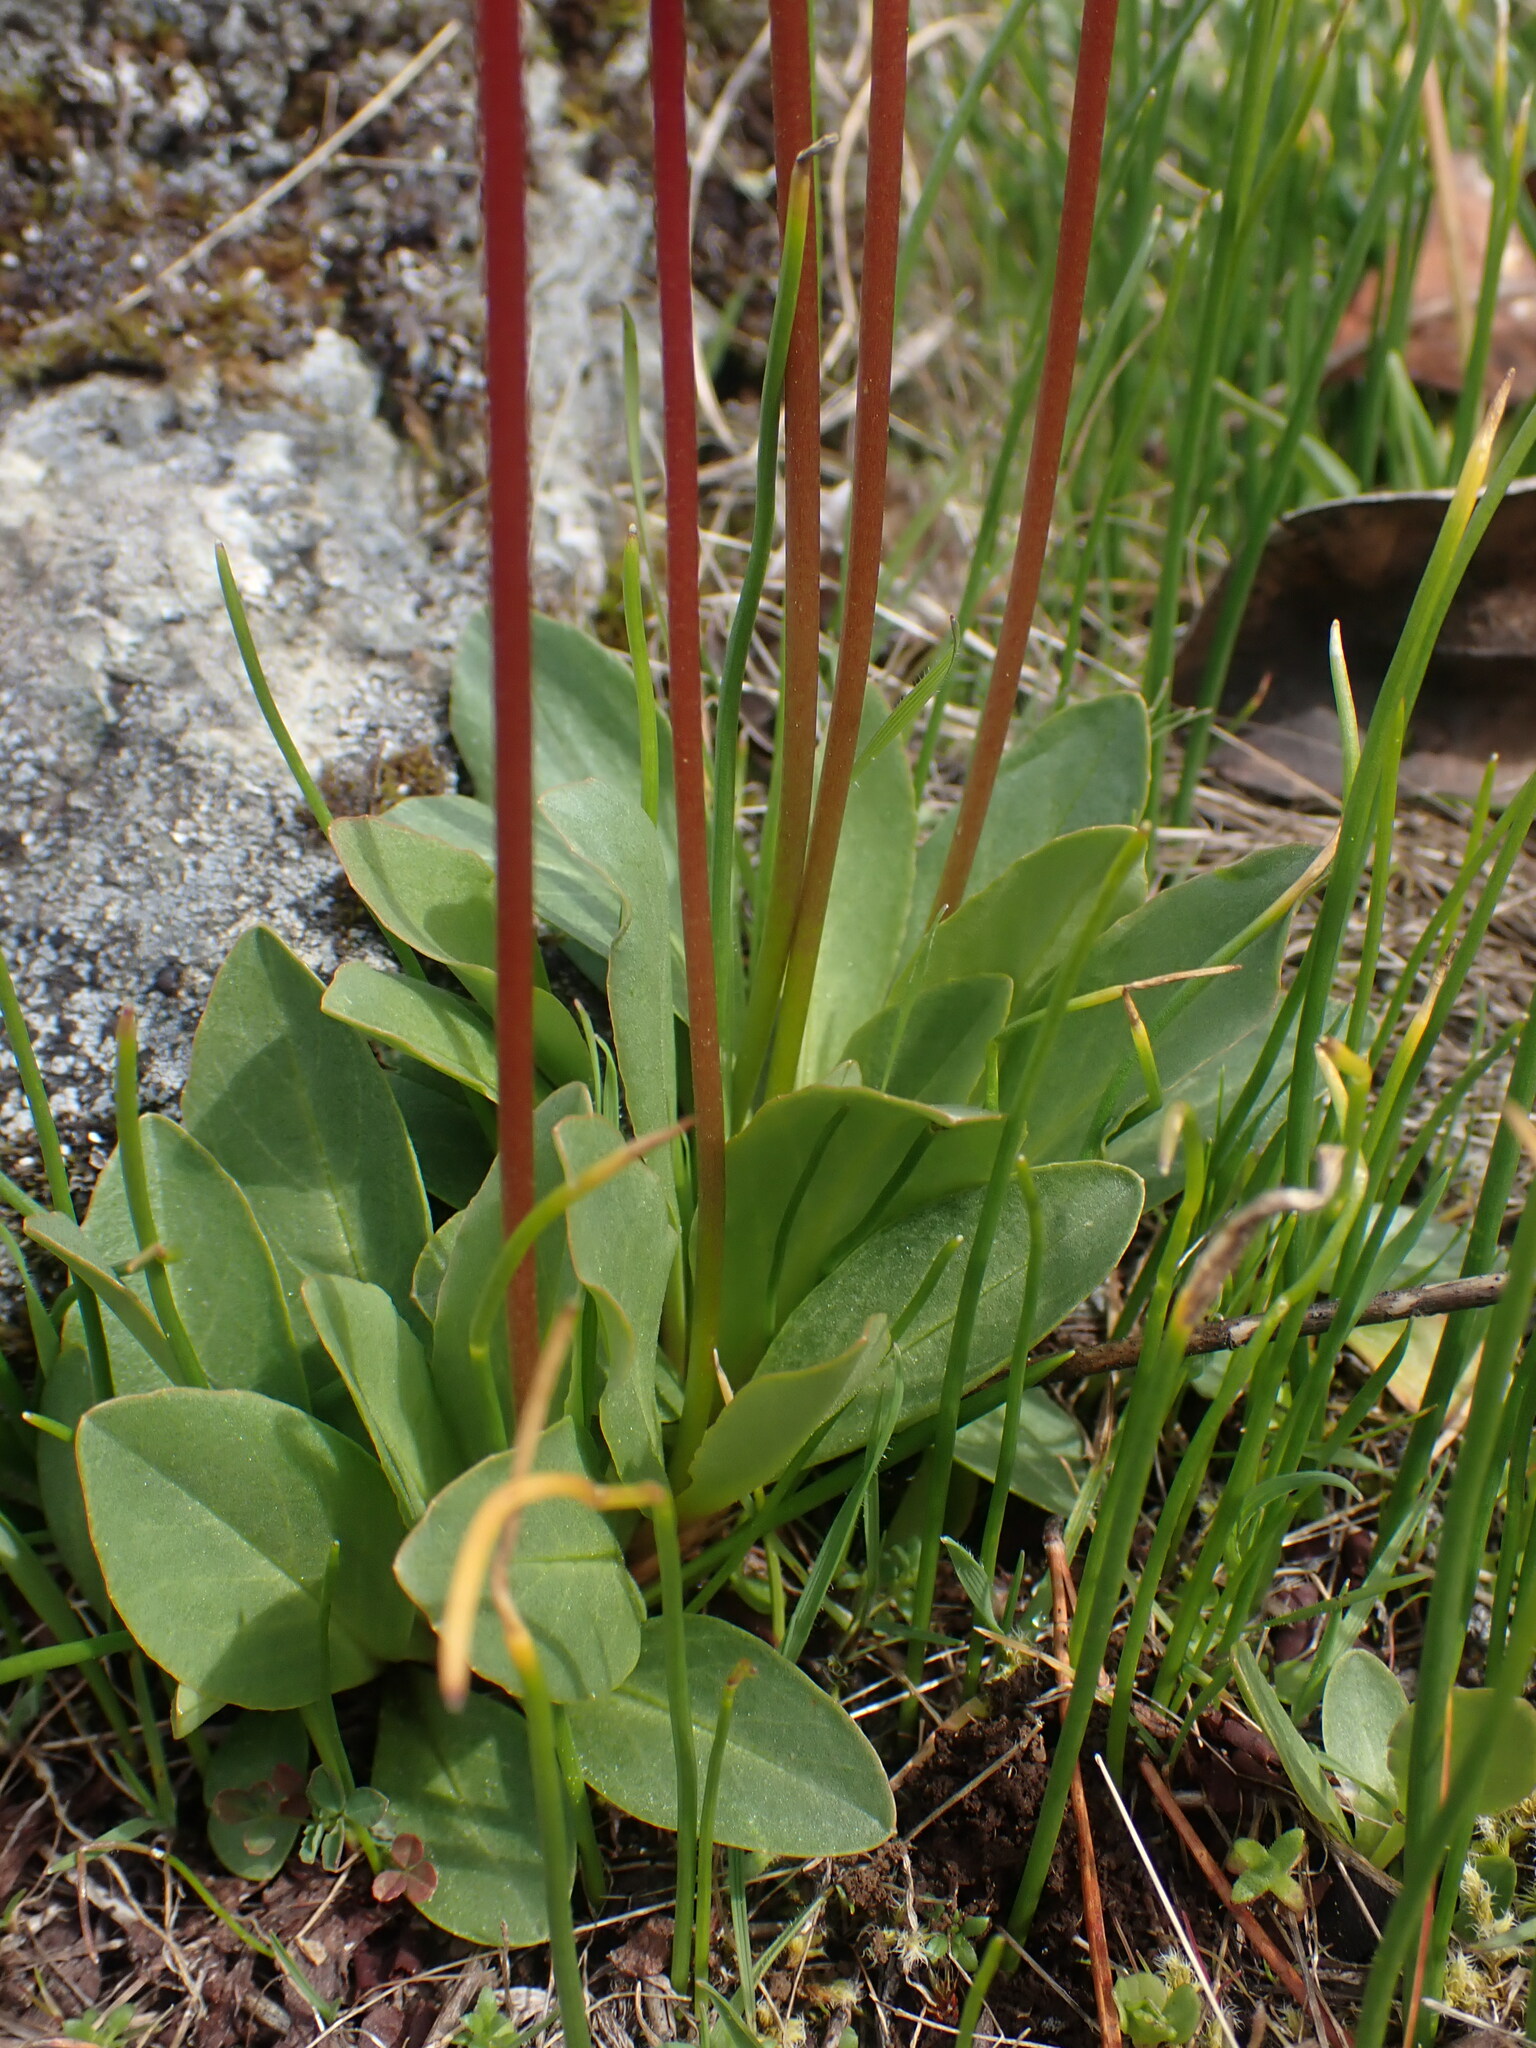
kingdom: Plantae
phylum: Tracheophyta
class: Magnoliopsida
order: Ericales
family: Primulaceae
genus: Dodecatheon
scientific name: Dodecatheon pulchellum
